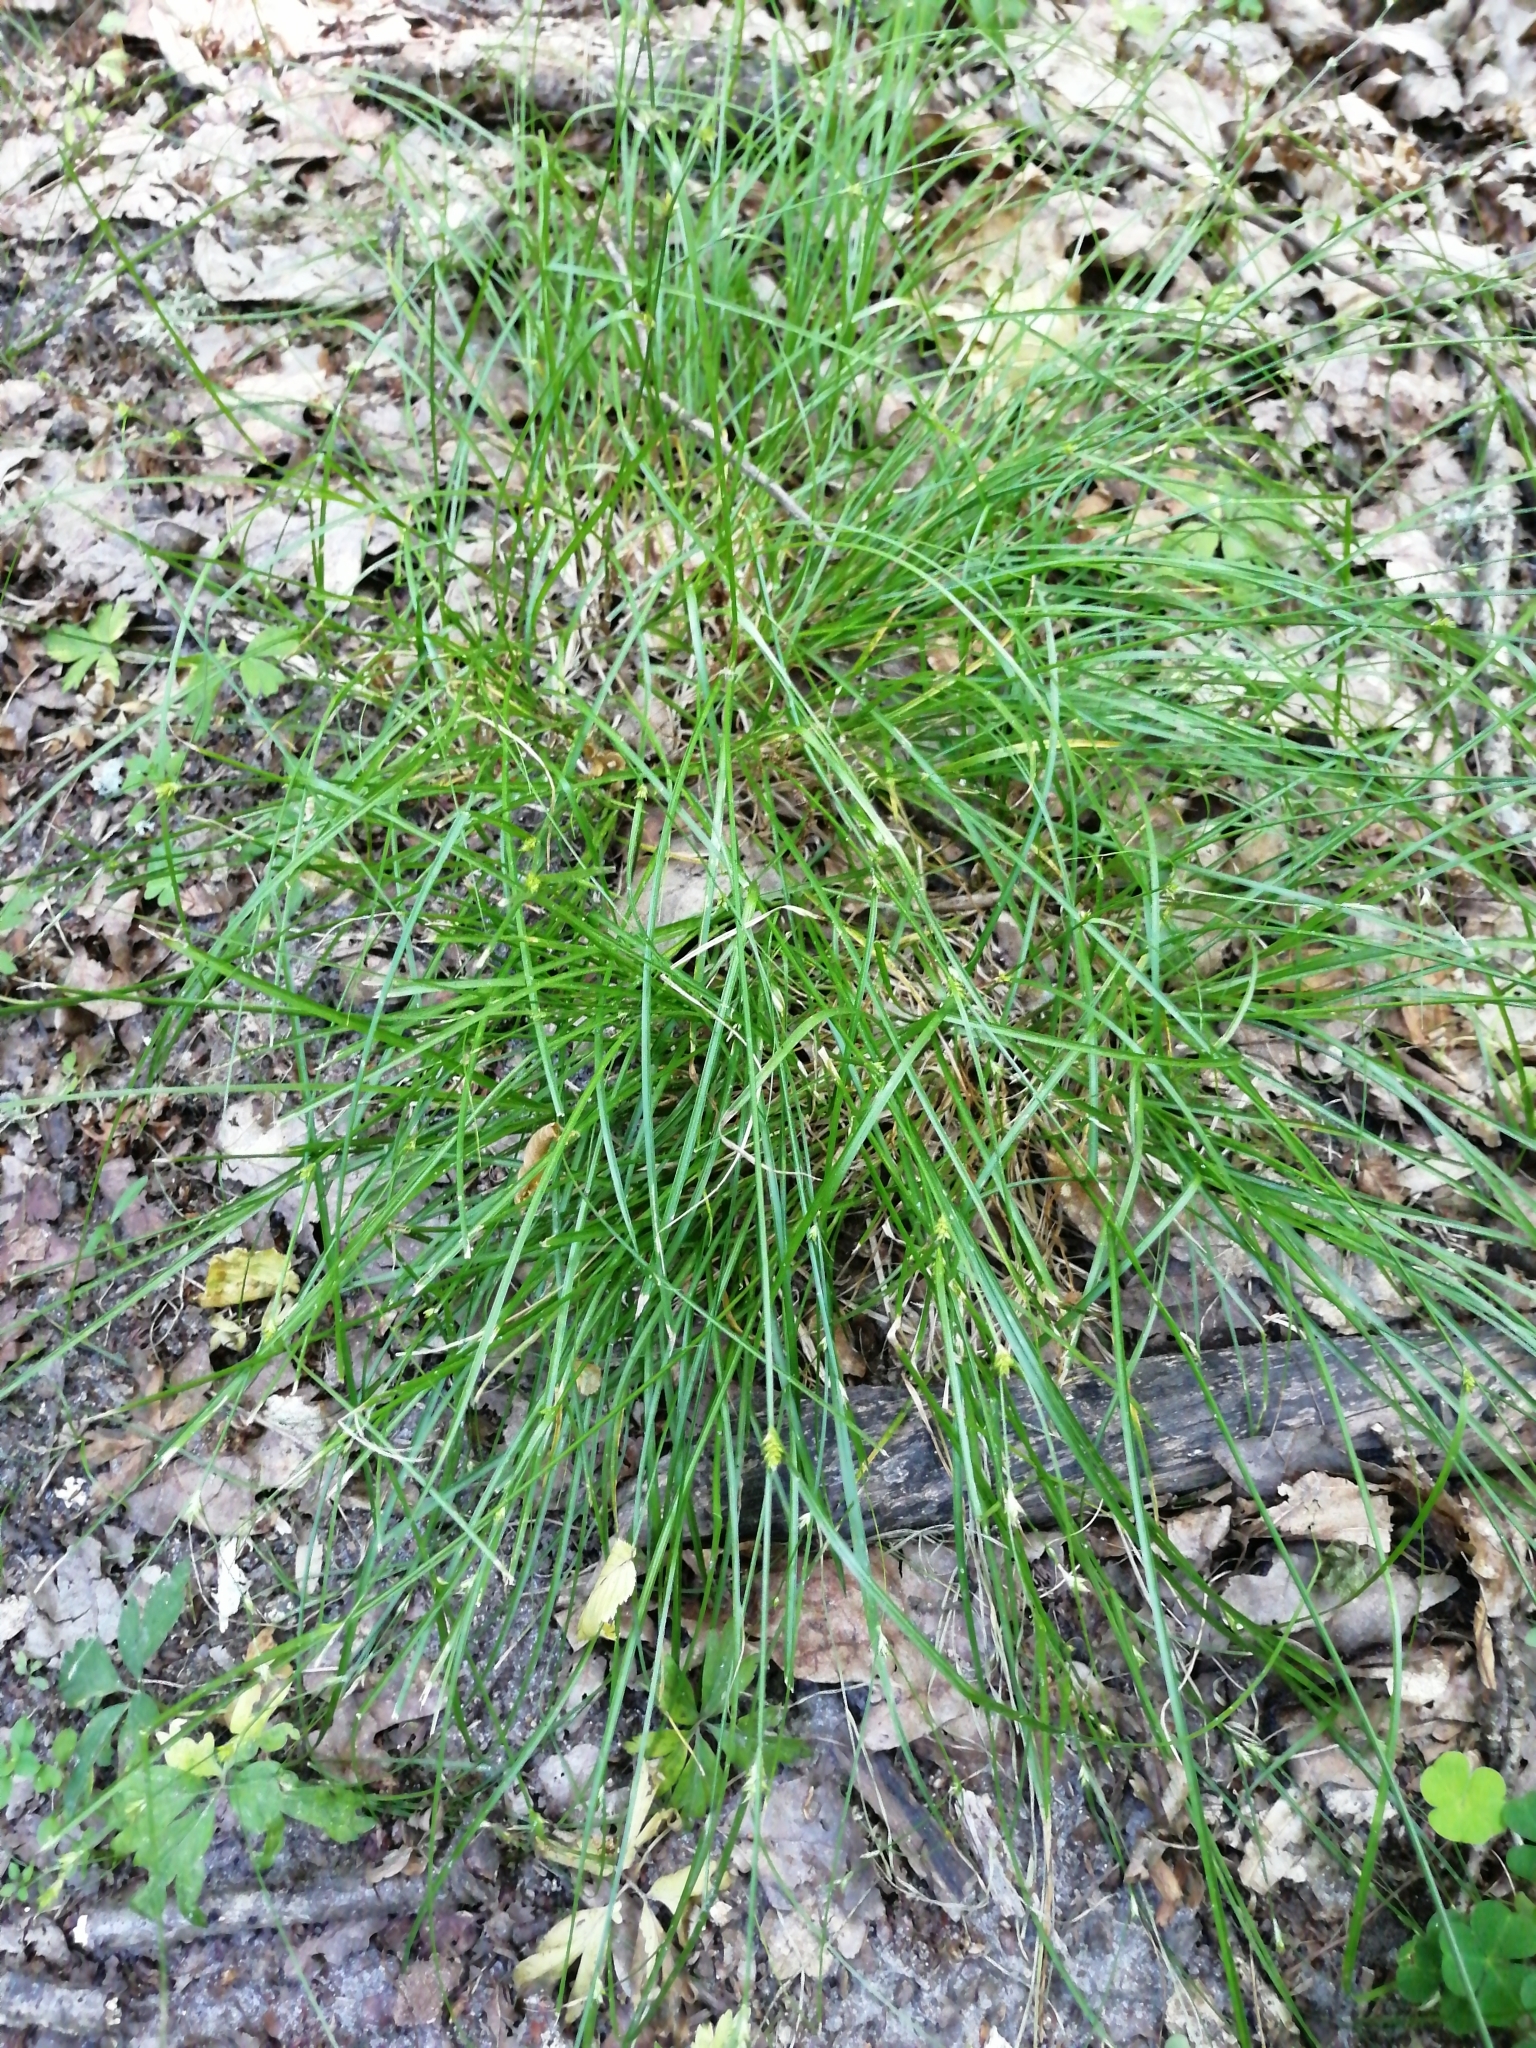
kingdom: Plantae
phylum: Tracheophyta
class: Liliopsida
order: Poales
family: Cyperaceae
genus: Carex
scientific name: Carex remota
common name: Remote sedge
